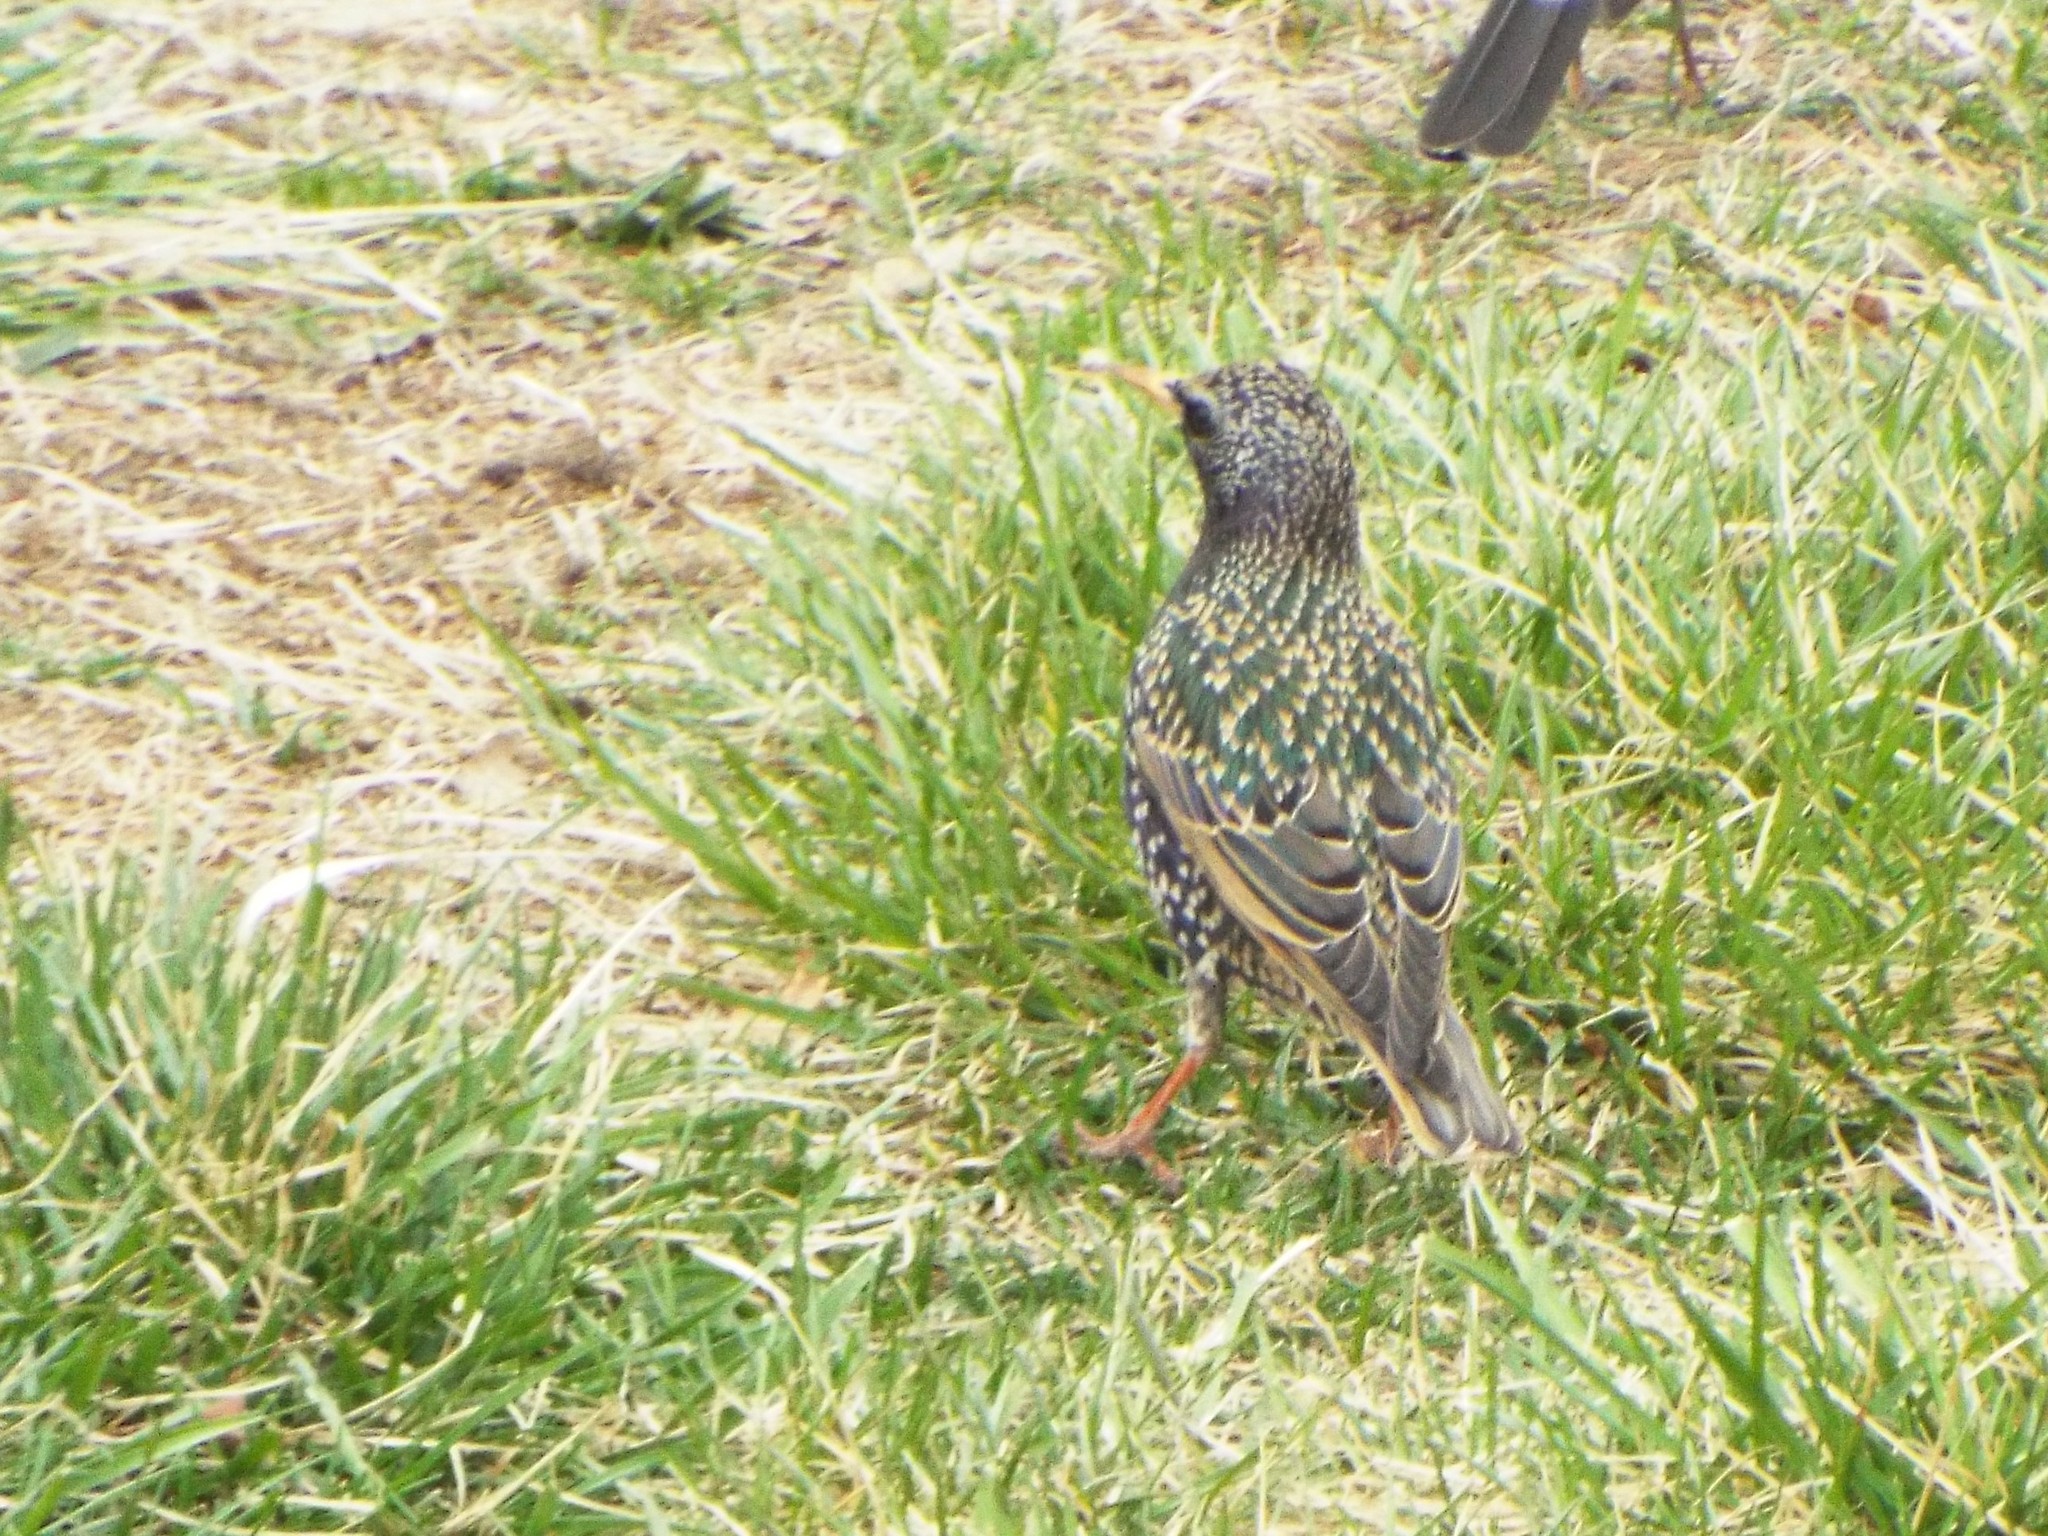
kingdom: Animalia
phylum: Chordata
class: Aves
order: Passeriformes
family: Sturnidae
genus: Sturnus
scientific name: Sturnus vulgaris
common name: Common starling
